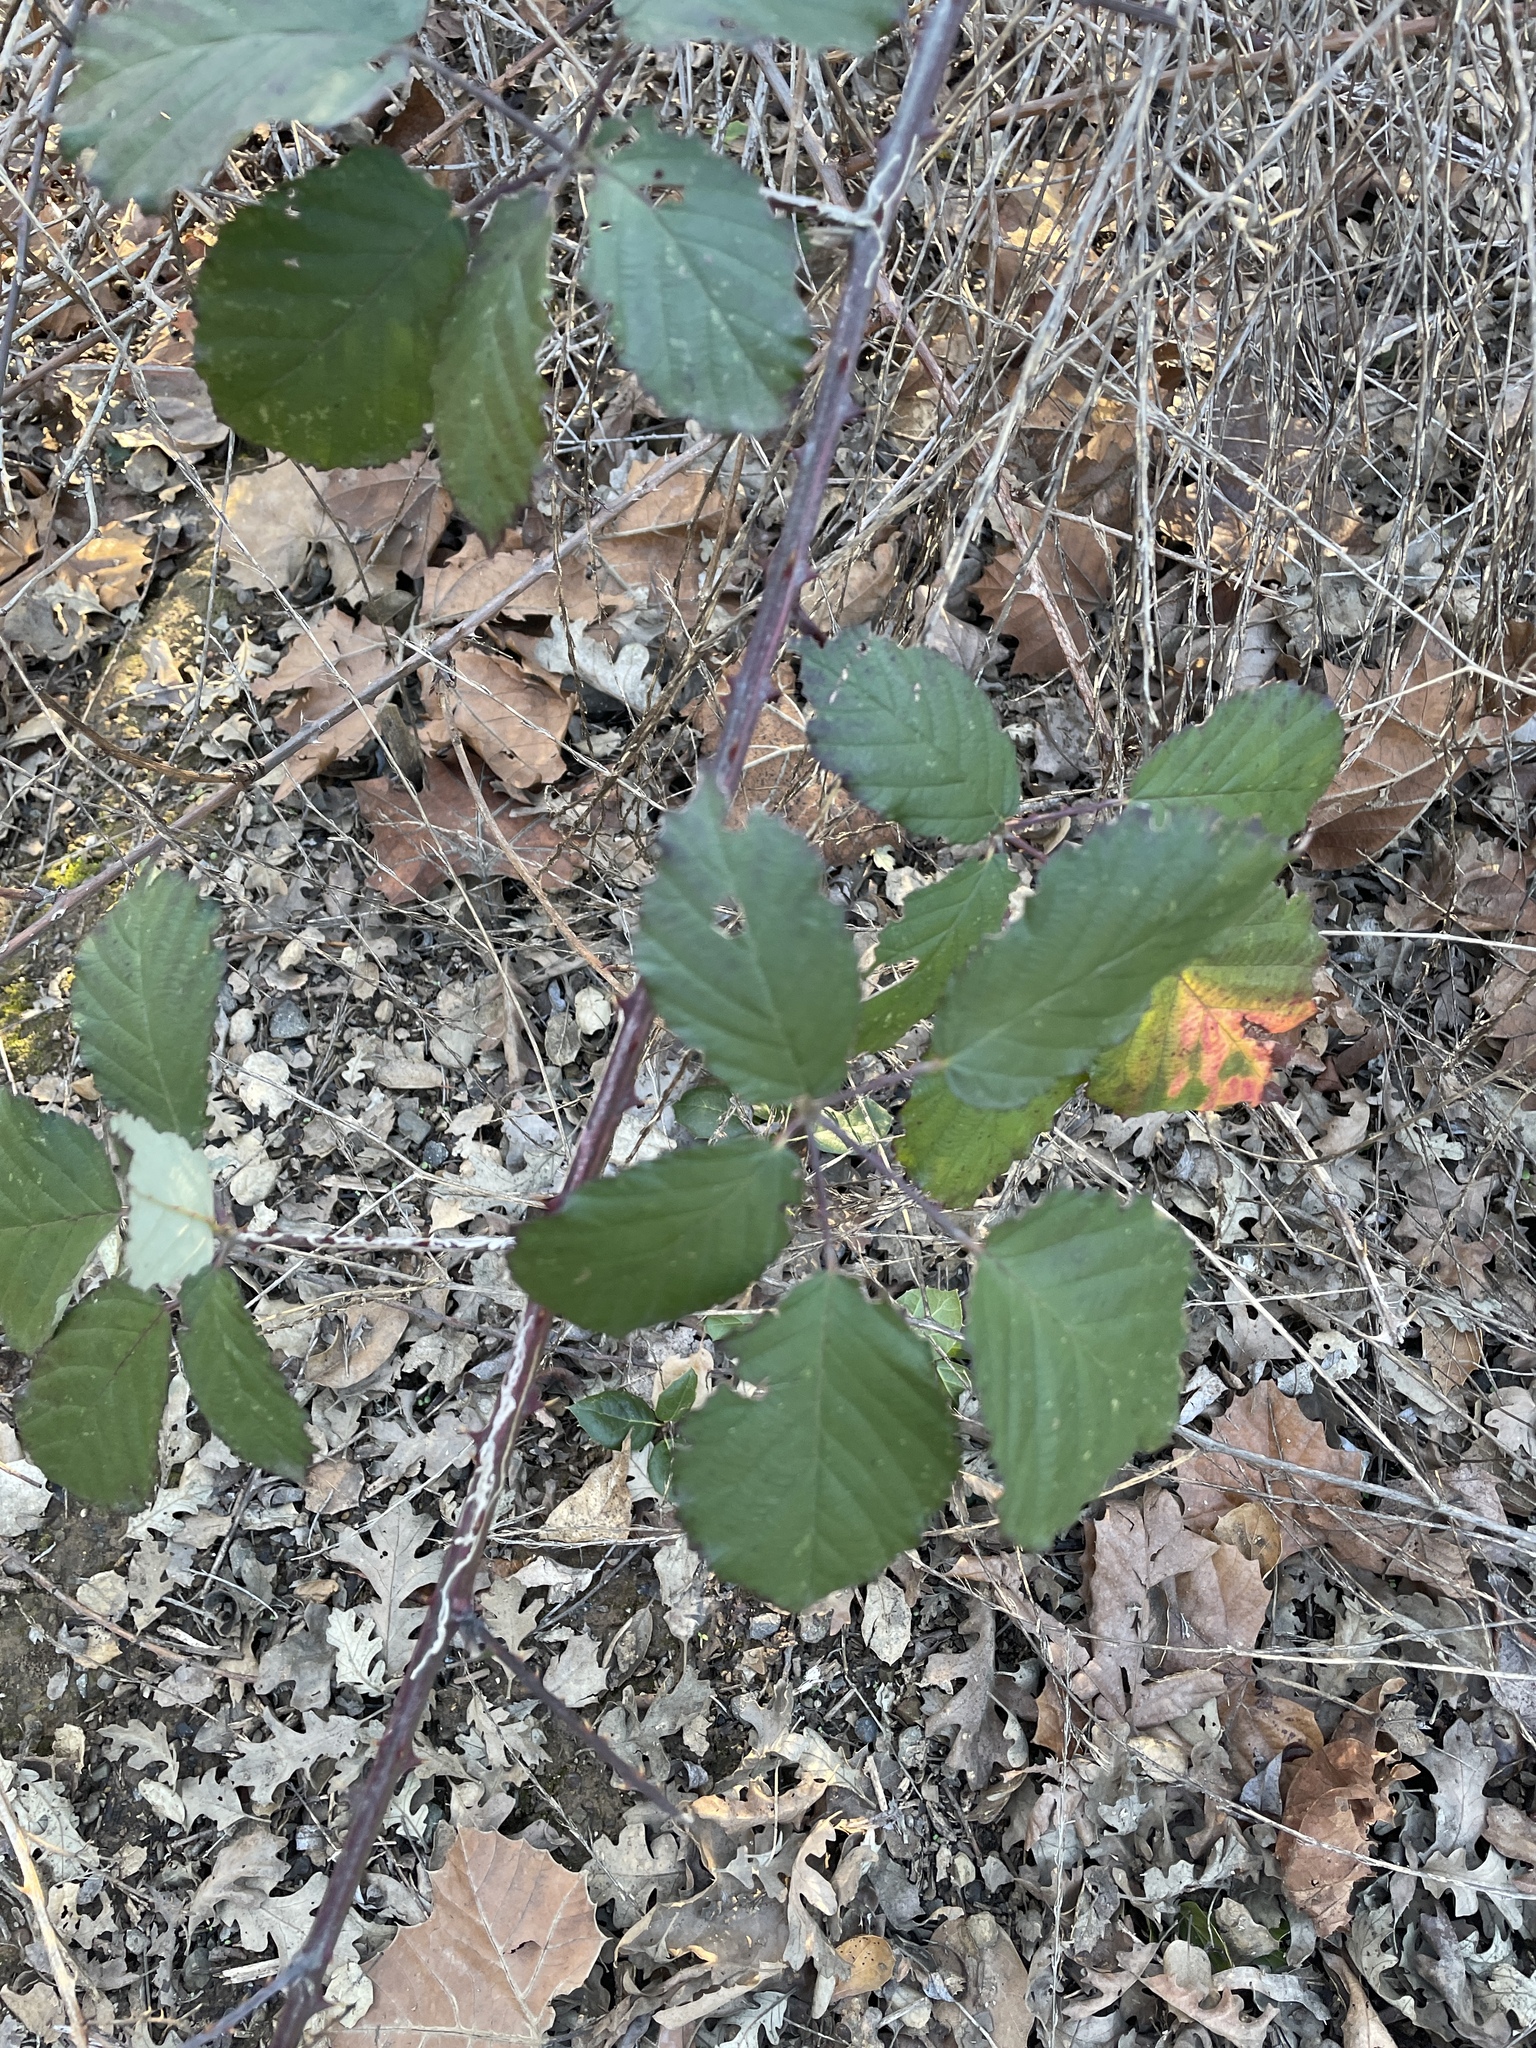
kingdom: Plantae
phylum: Tracheophyta
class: Magnoliopsida
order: Rosales
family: Rosaceae
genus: Rubus
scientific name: Rubus armeniacus
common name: Himalayan blackberry
